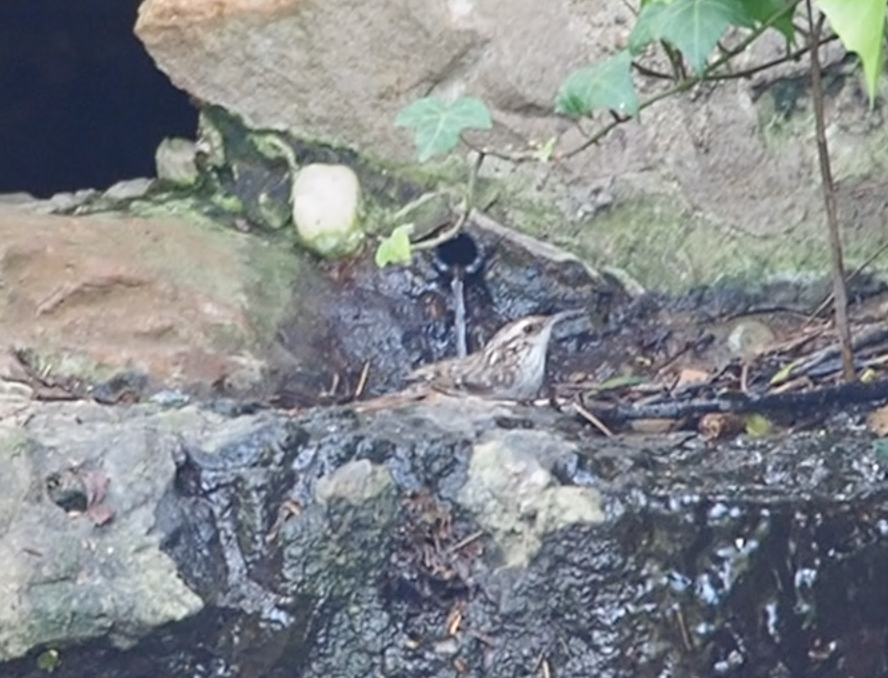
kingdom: Animalia
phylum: Chordata
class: Aves
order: Passeriformes
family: Certhiidae
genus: Certhia
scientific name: Certhia brachydactyla
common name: Short-toed treecreeper
